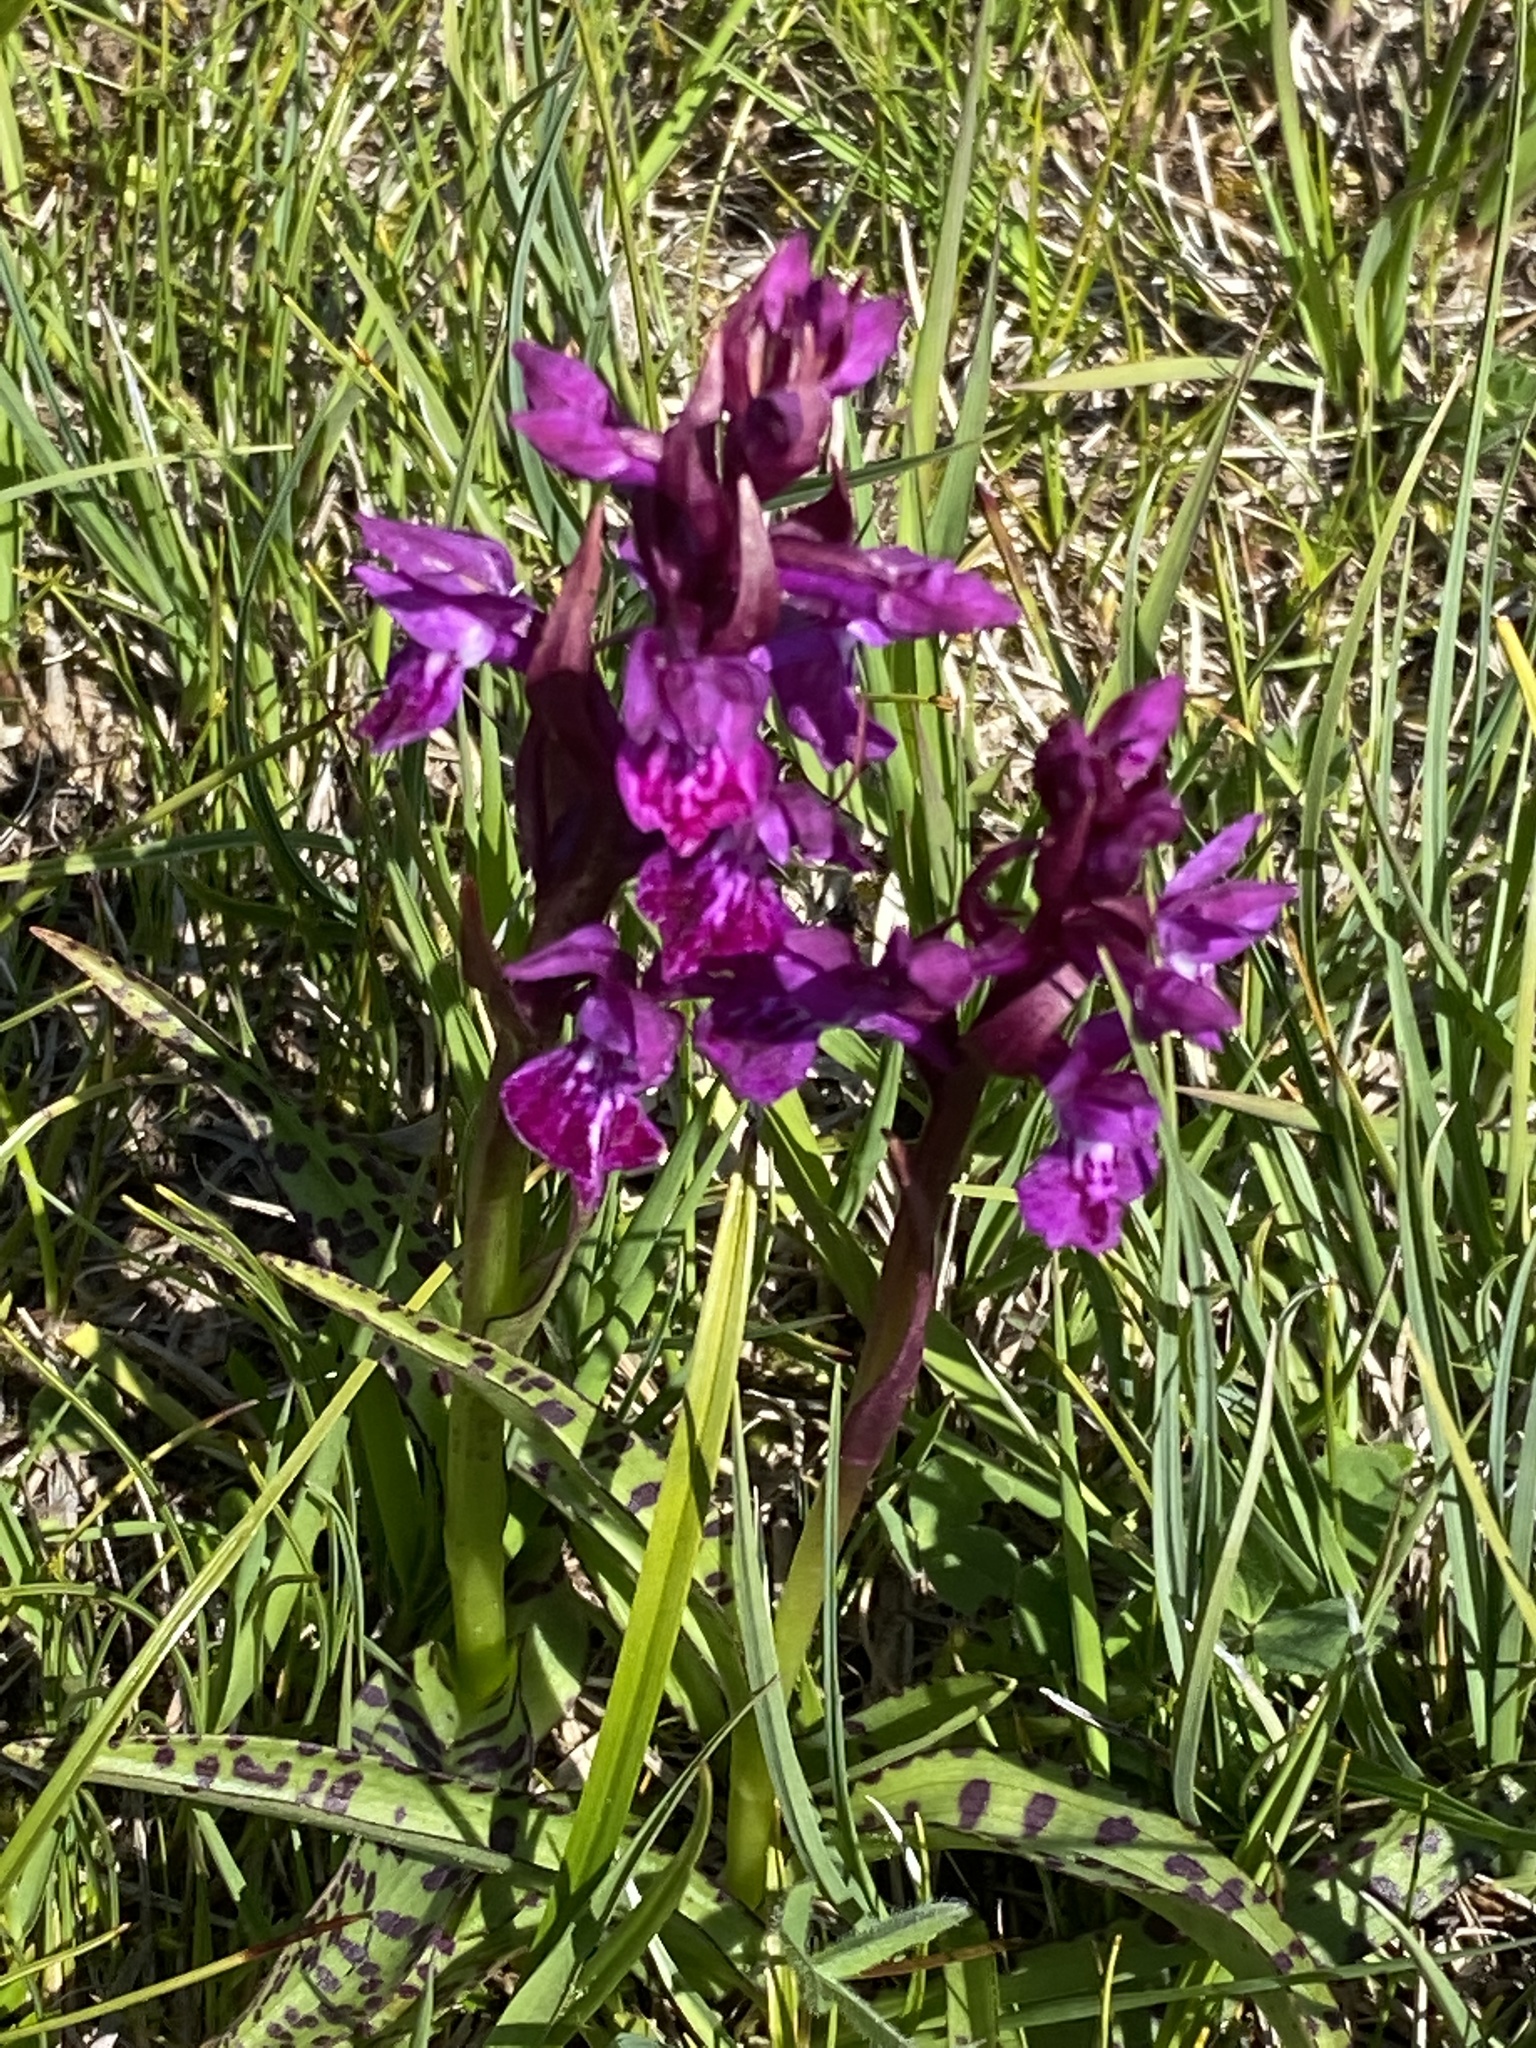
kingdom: Plantae
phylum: Tracheophyta
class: Liliopsida
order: Asparagales
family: Orchidaceae
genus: Dactylorhiza
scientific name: Dactylorhiza sambucina
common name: Elder-flowered orchid
